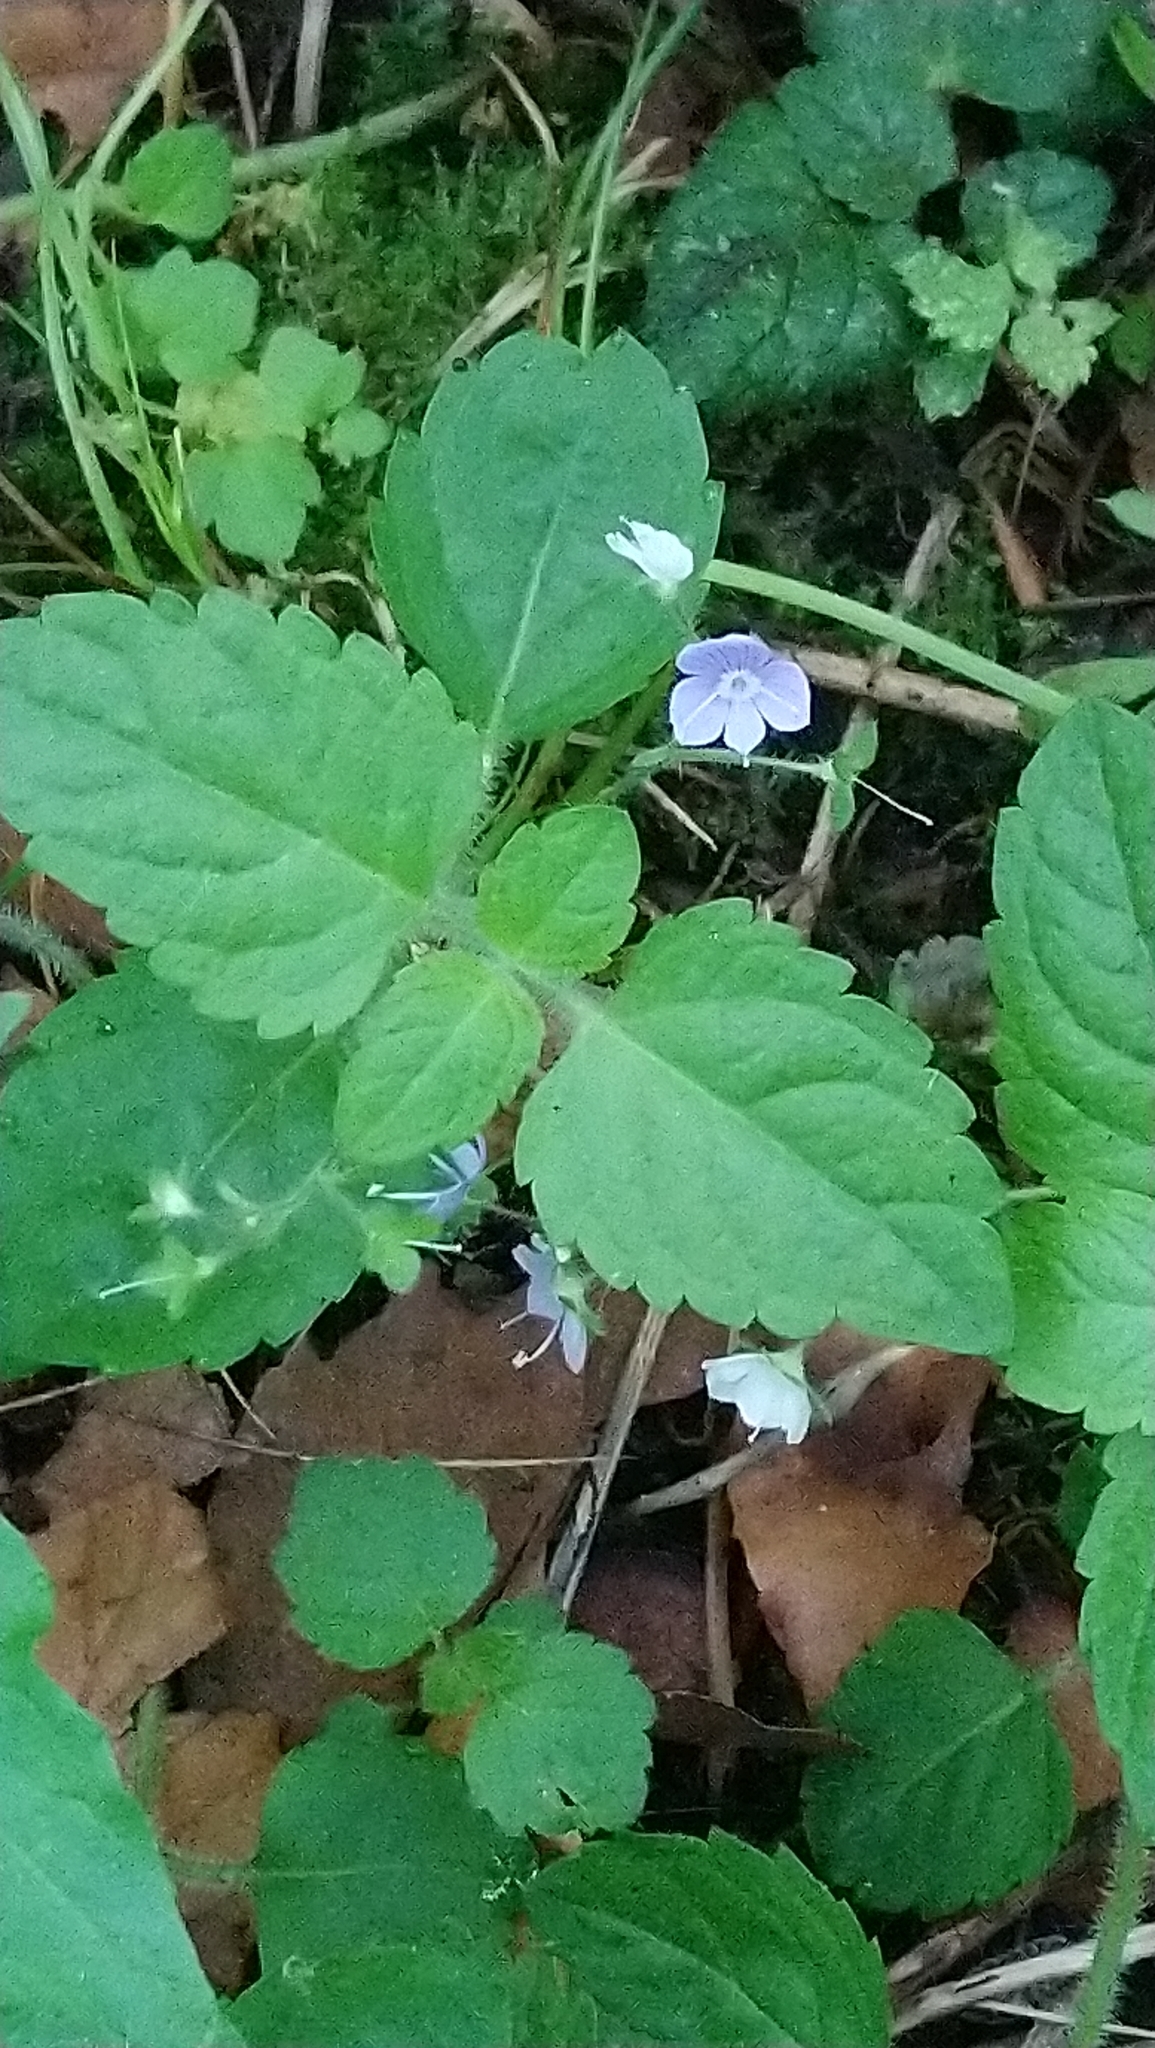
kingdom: Plantae
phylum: Tracheophyta
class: Magnoliopsida
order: Lamiales
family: Plantaginaceae
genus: Veronica
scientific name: Veronica montana
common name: Wood speedwell
